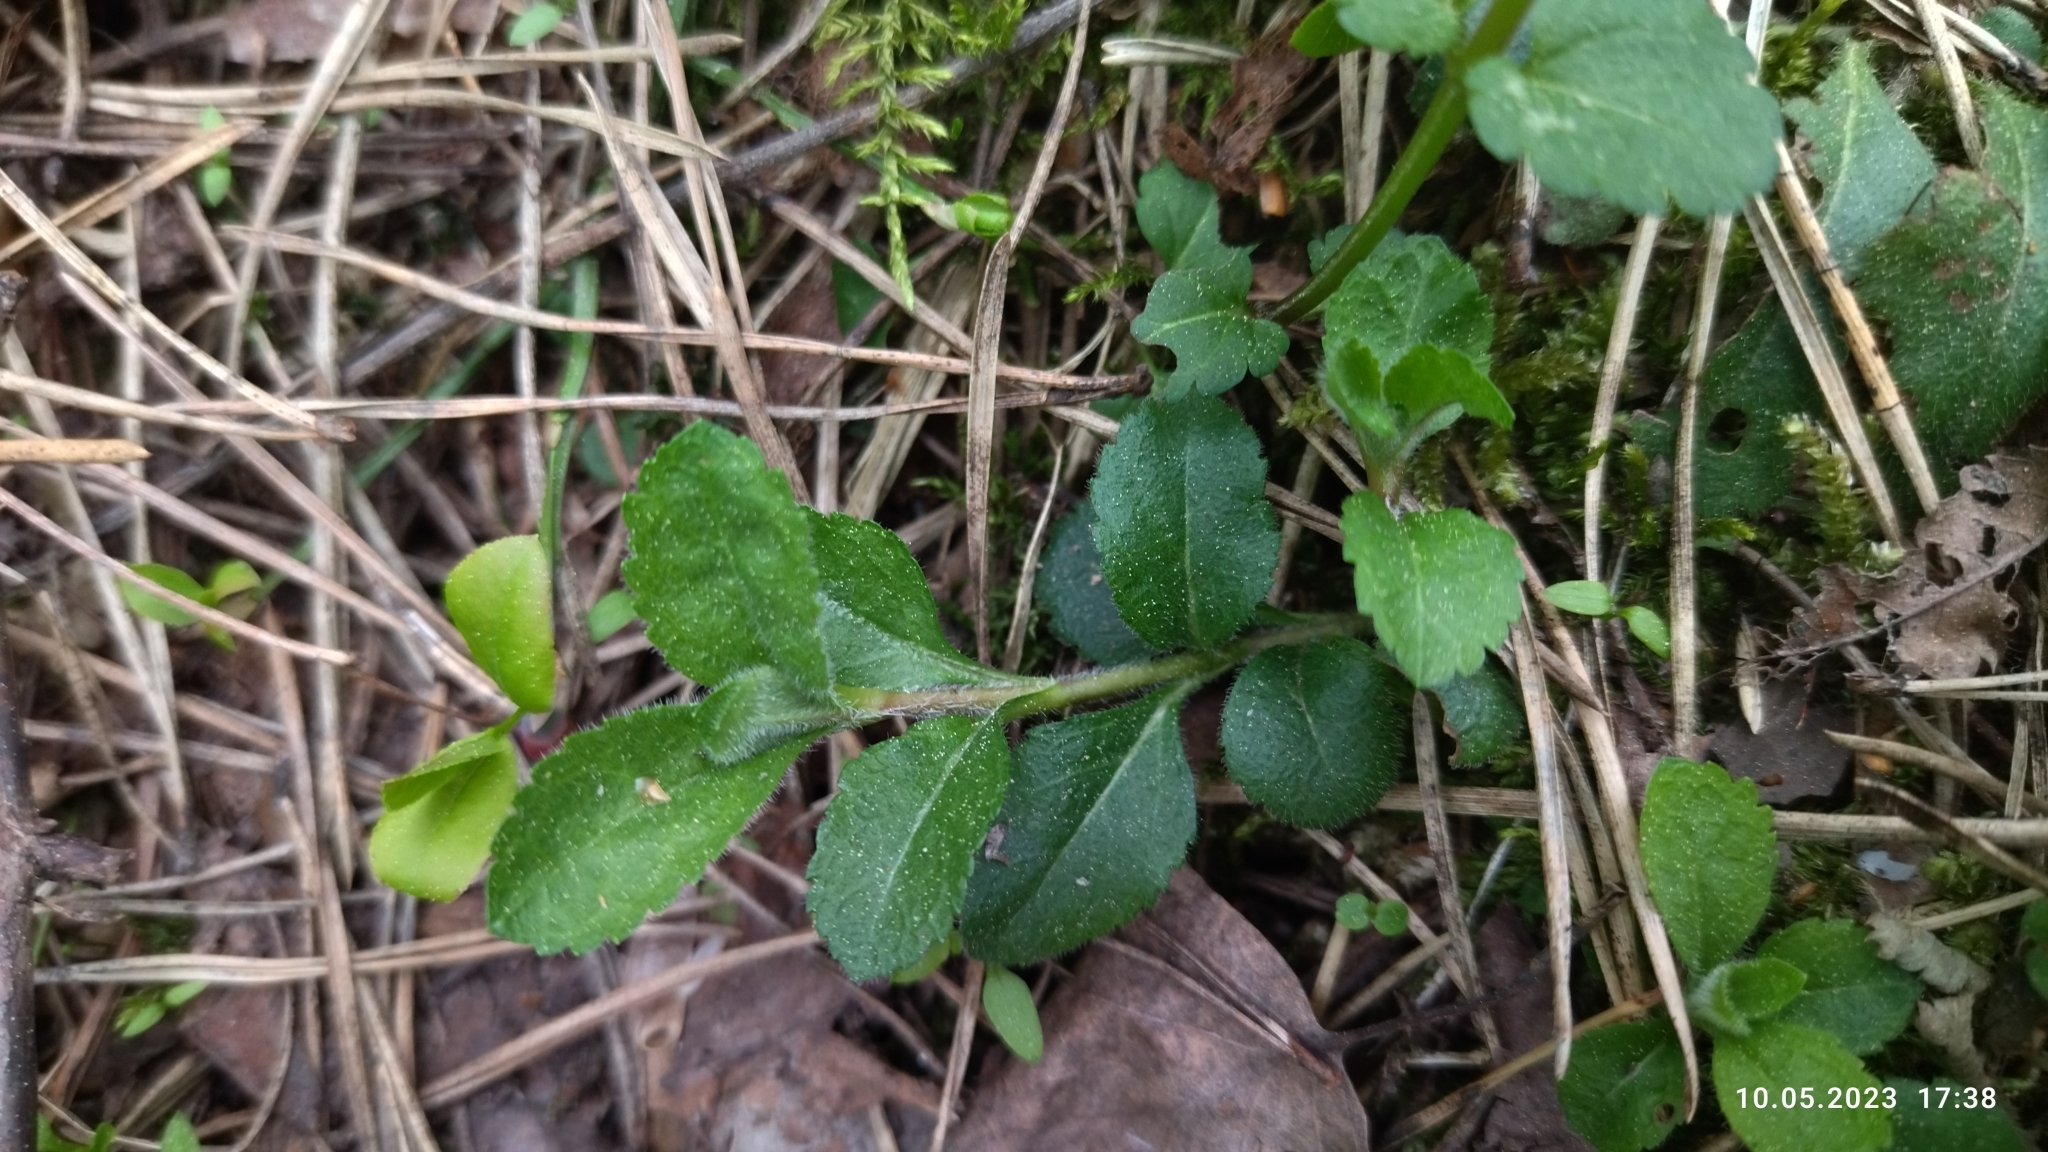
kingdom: Plantae
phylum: Tracheophyta
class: Magnoliopsida
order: Lamiales
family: Plantaginaceae
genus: Veronica
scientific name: Veronica officinalis
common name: Common speedwell
